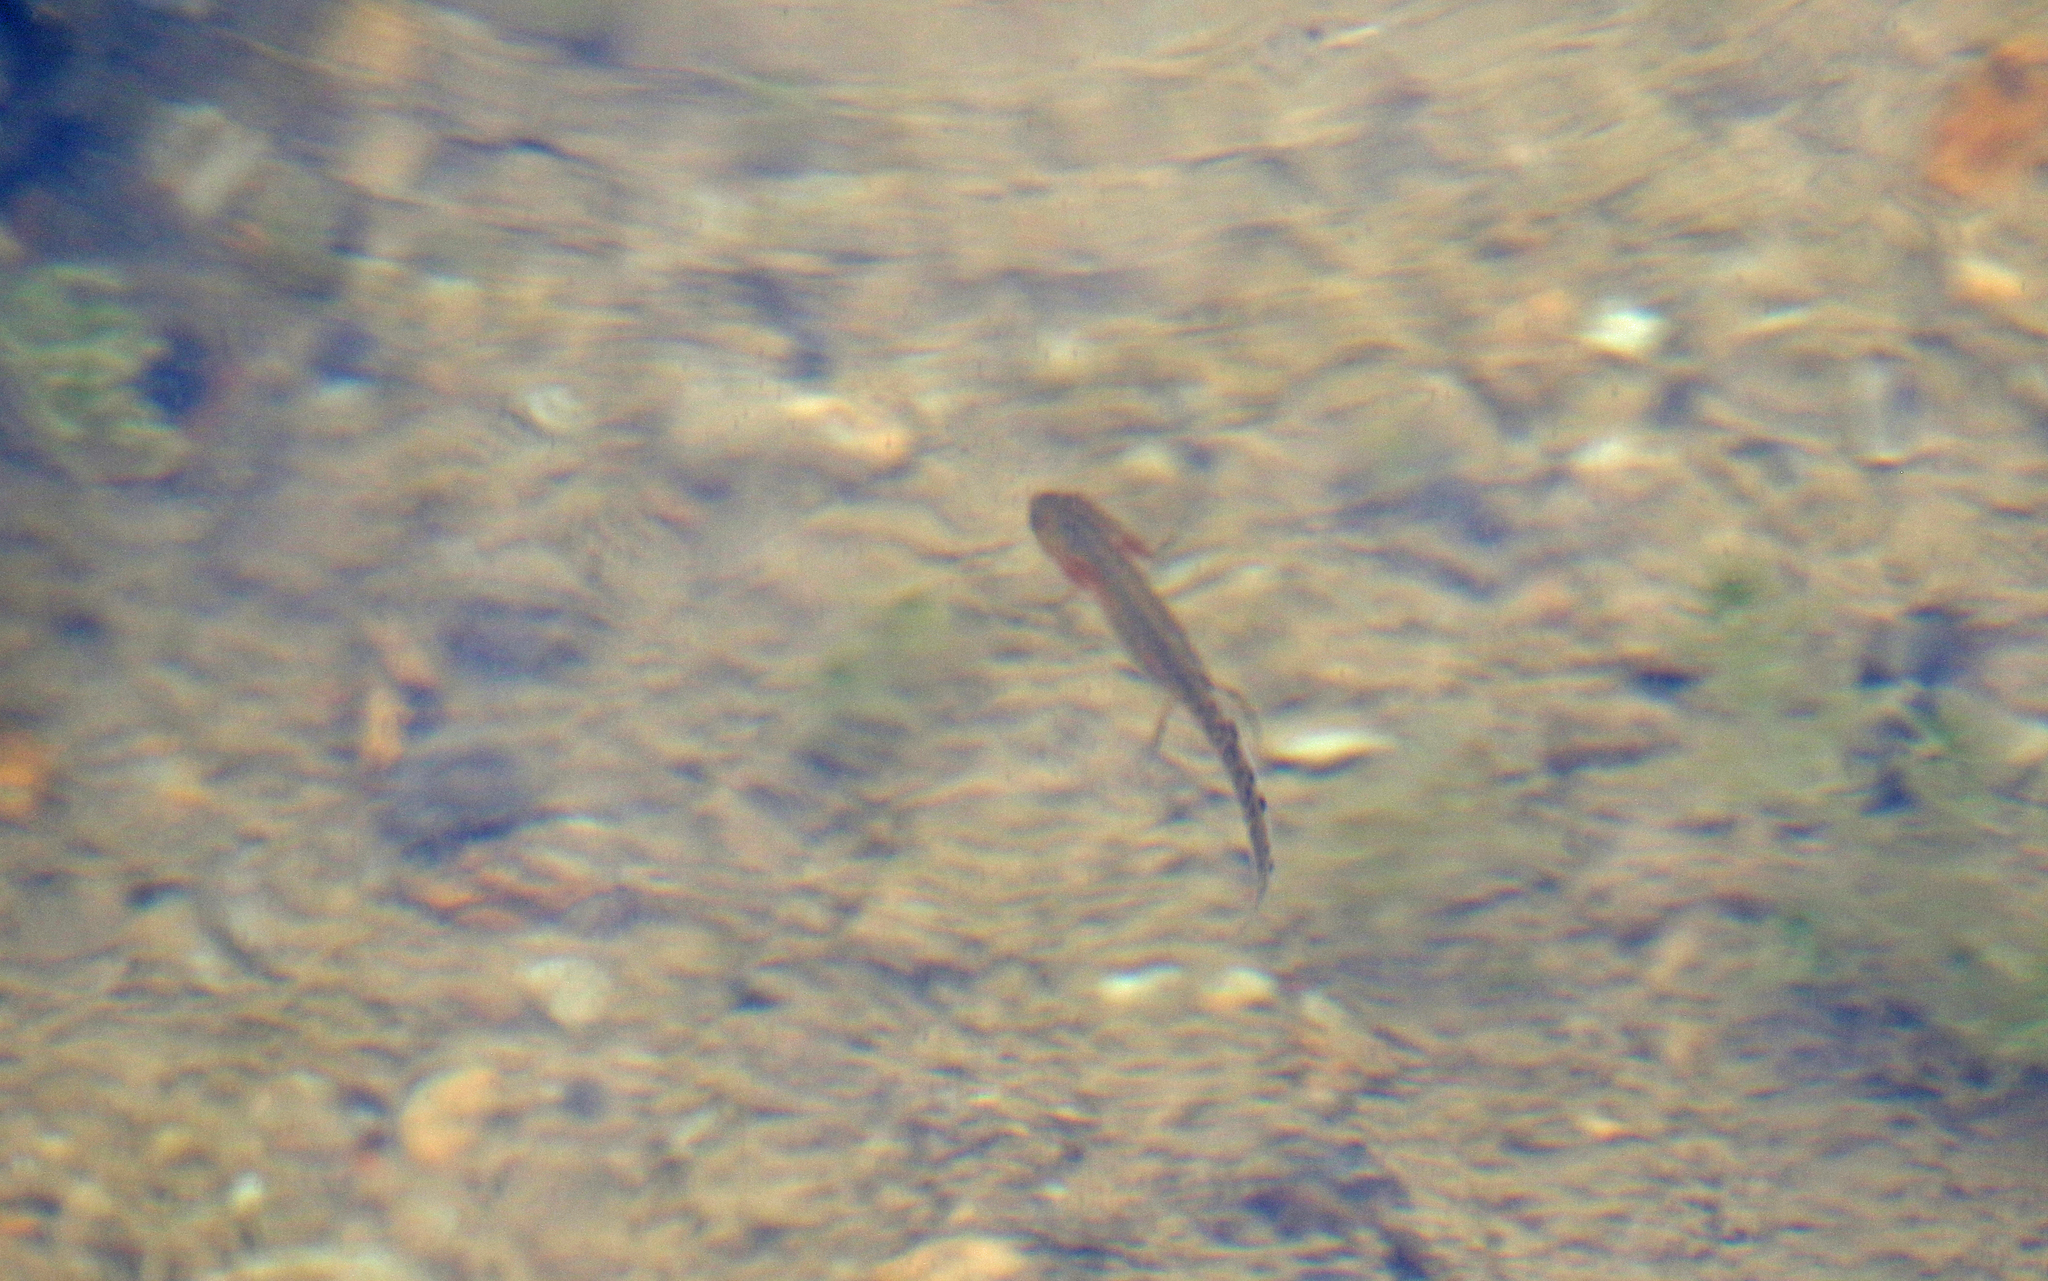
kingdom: Animalia
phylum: Chordata
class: Amphibia
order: Caudata
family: Salamandridae
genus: Triturus
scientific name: Triturus pygmaeus
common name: Southern marbled newt
